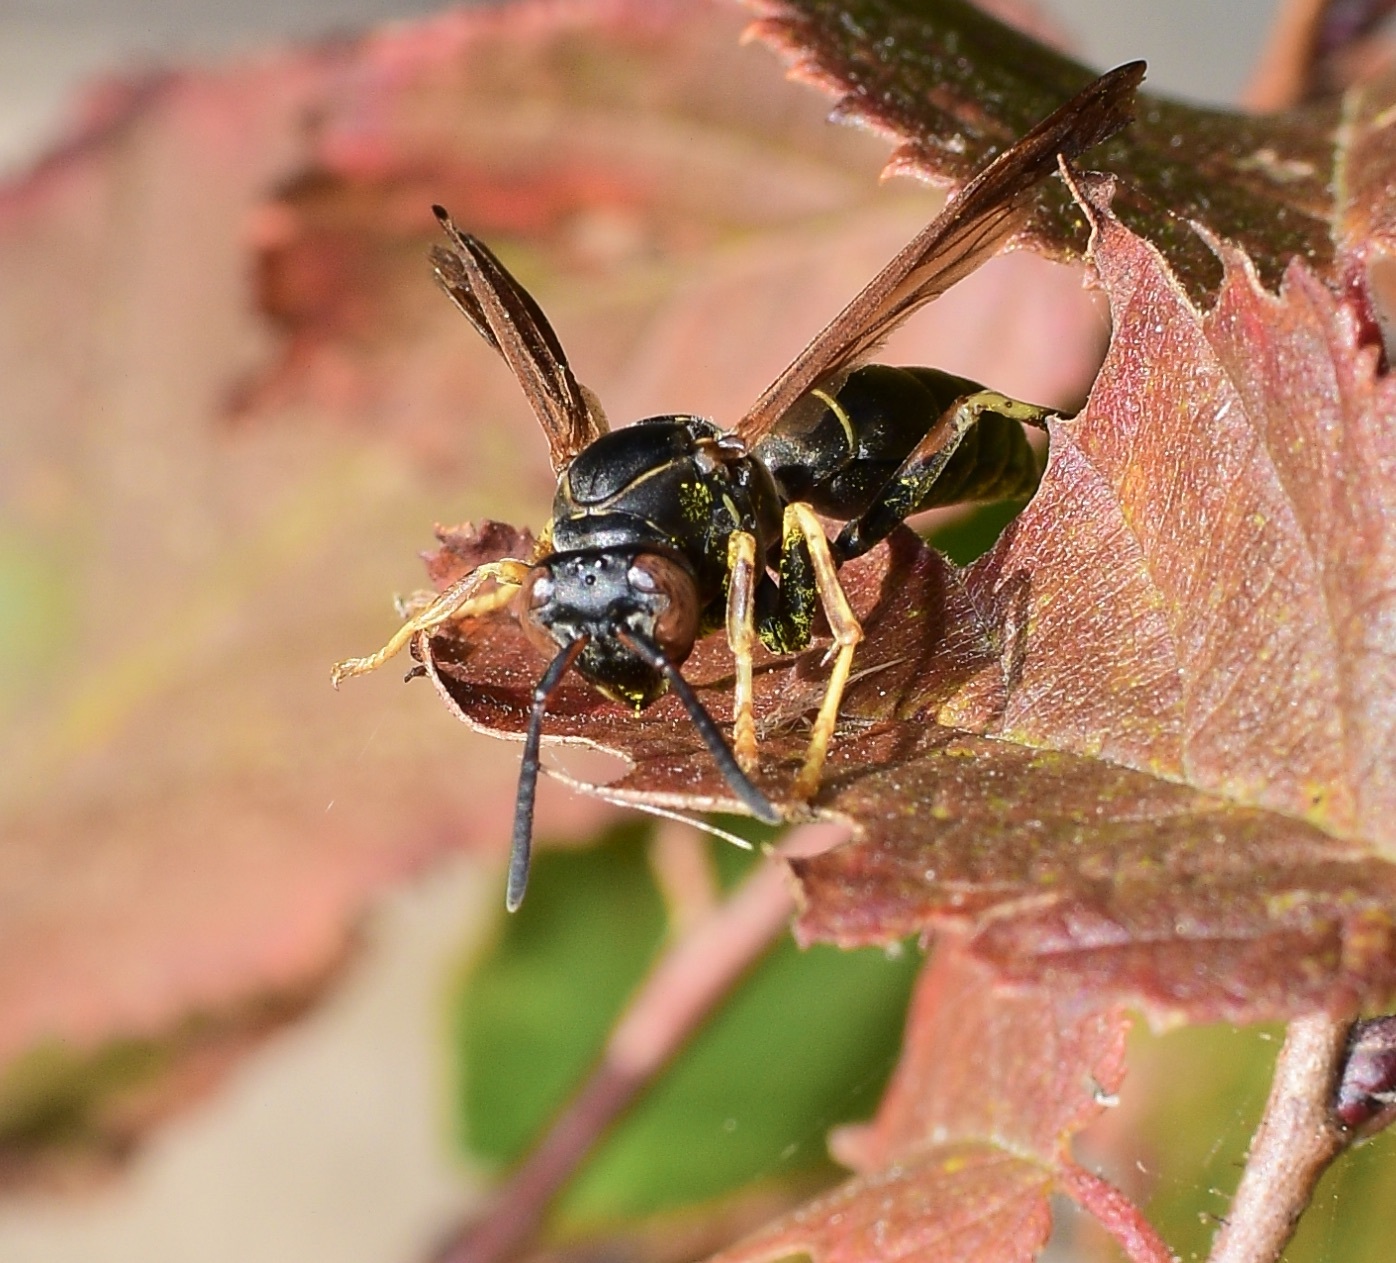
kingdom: Animalia
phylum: Arthropoda
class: Insecta
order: Hymenoptera
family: Eumenidae
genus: Polistes
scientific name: Polistes fuscatus
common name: Dark paper wasp
